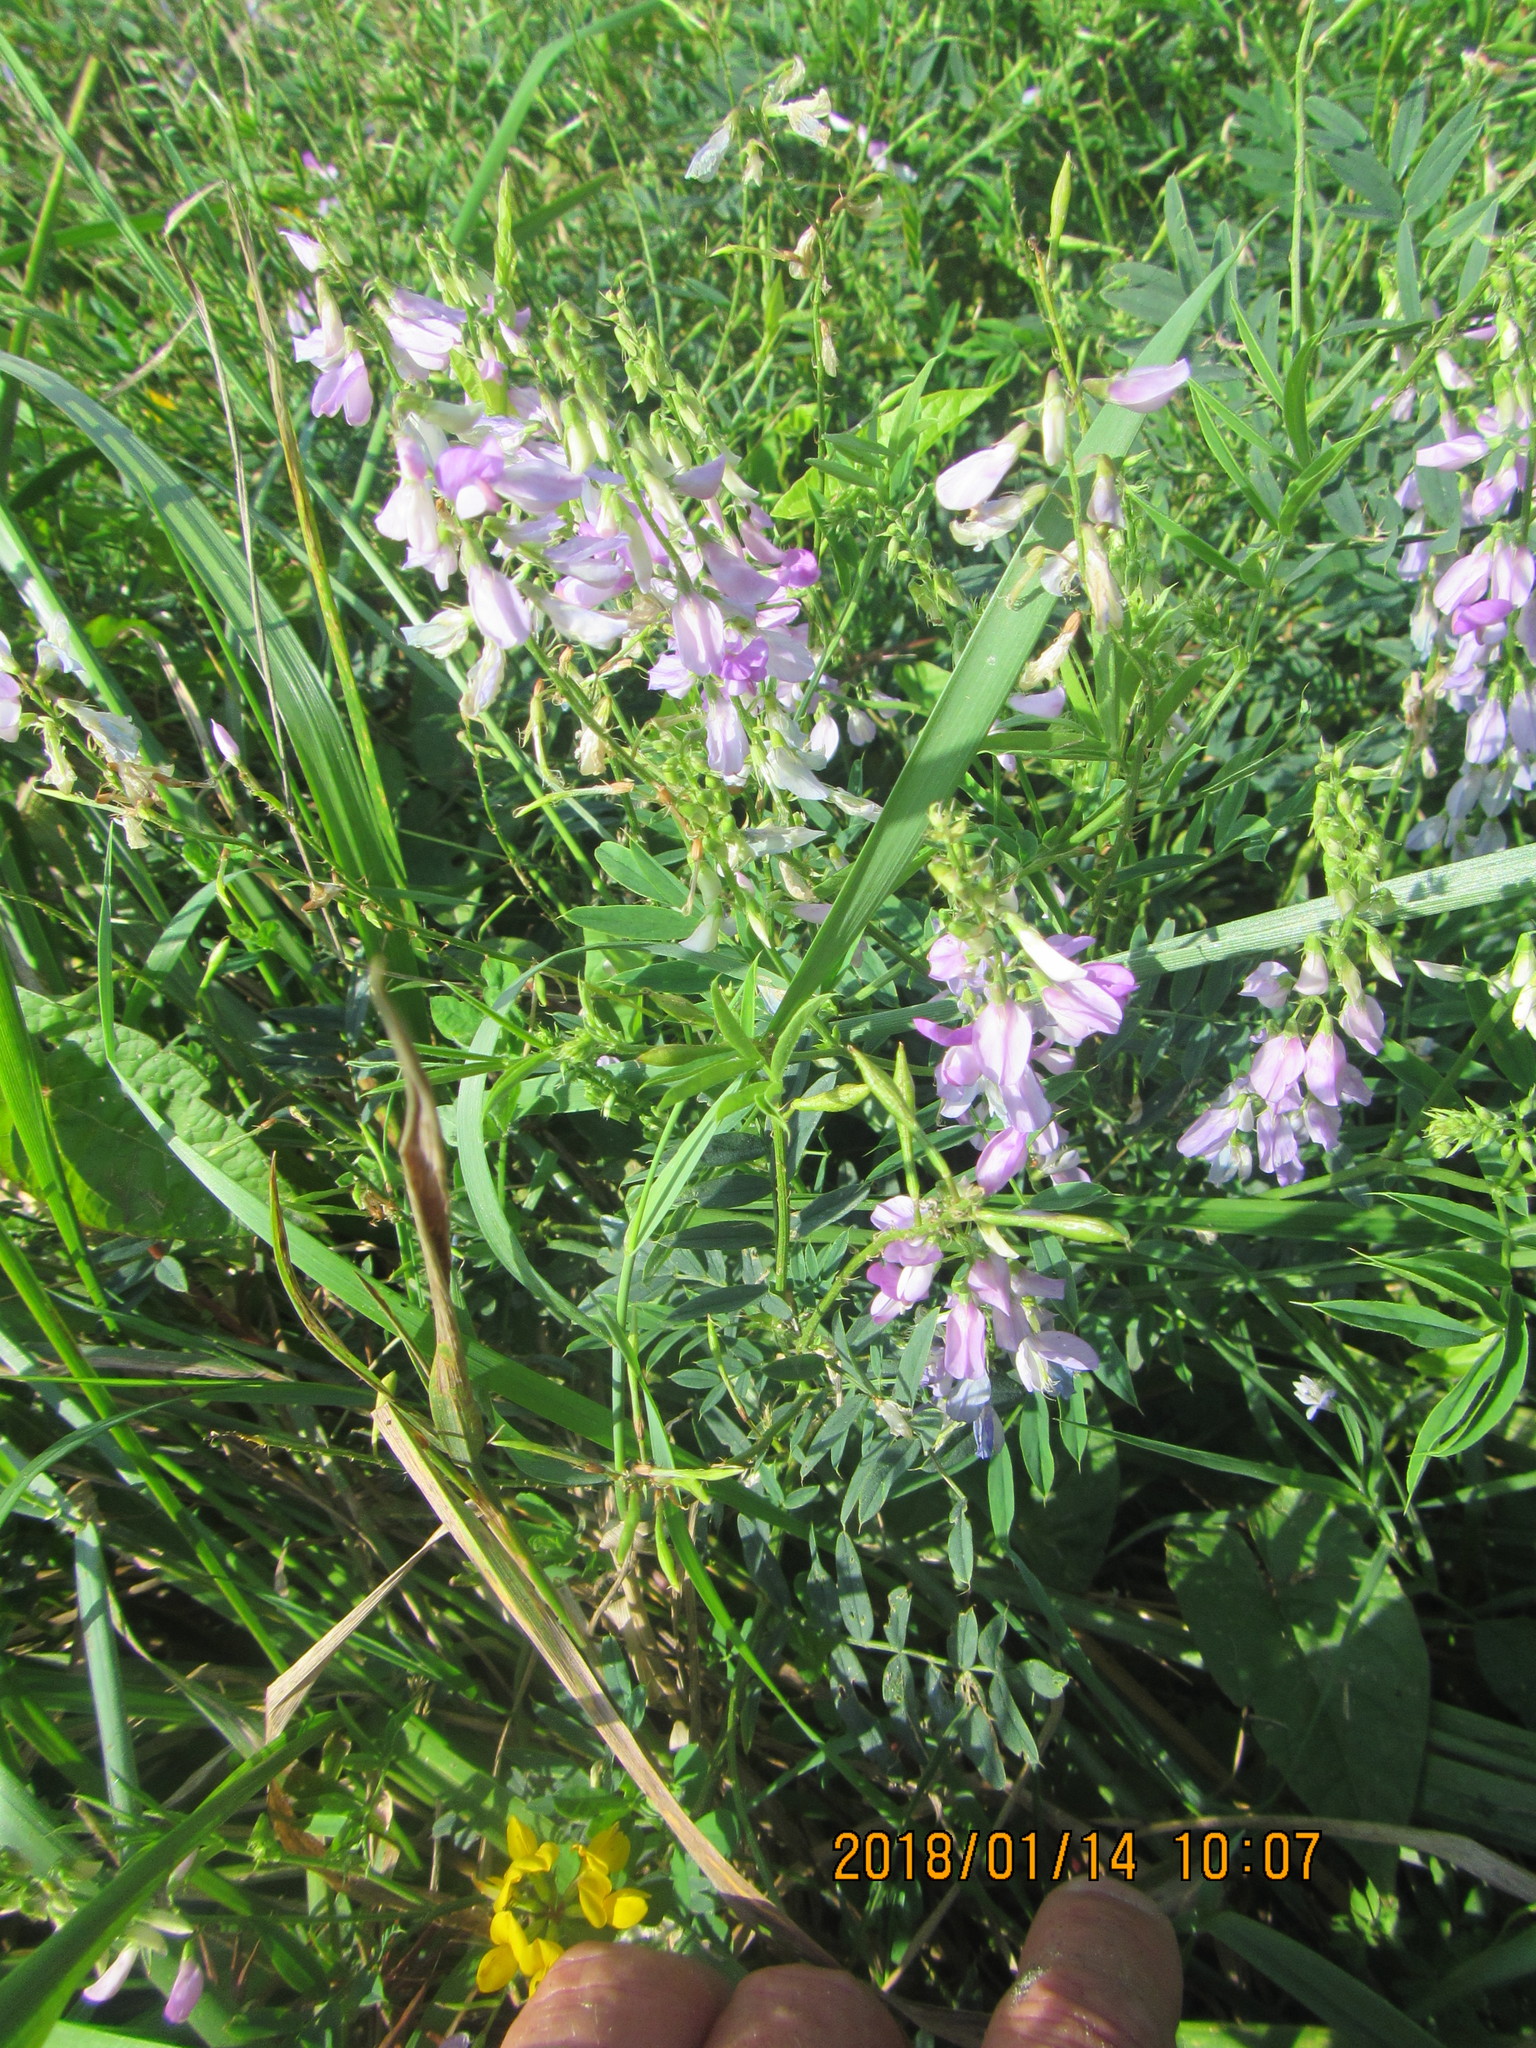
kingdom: Plantae
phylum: Tracheophyta
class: Magnoliopsida
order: Fabales
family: Fabaceae
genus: Galega
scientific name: Galega officinalis
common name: Goat's-rue
